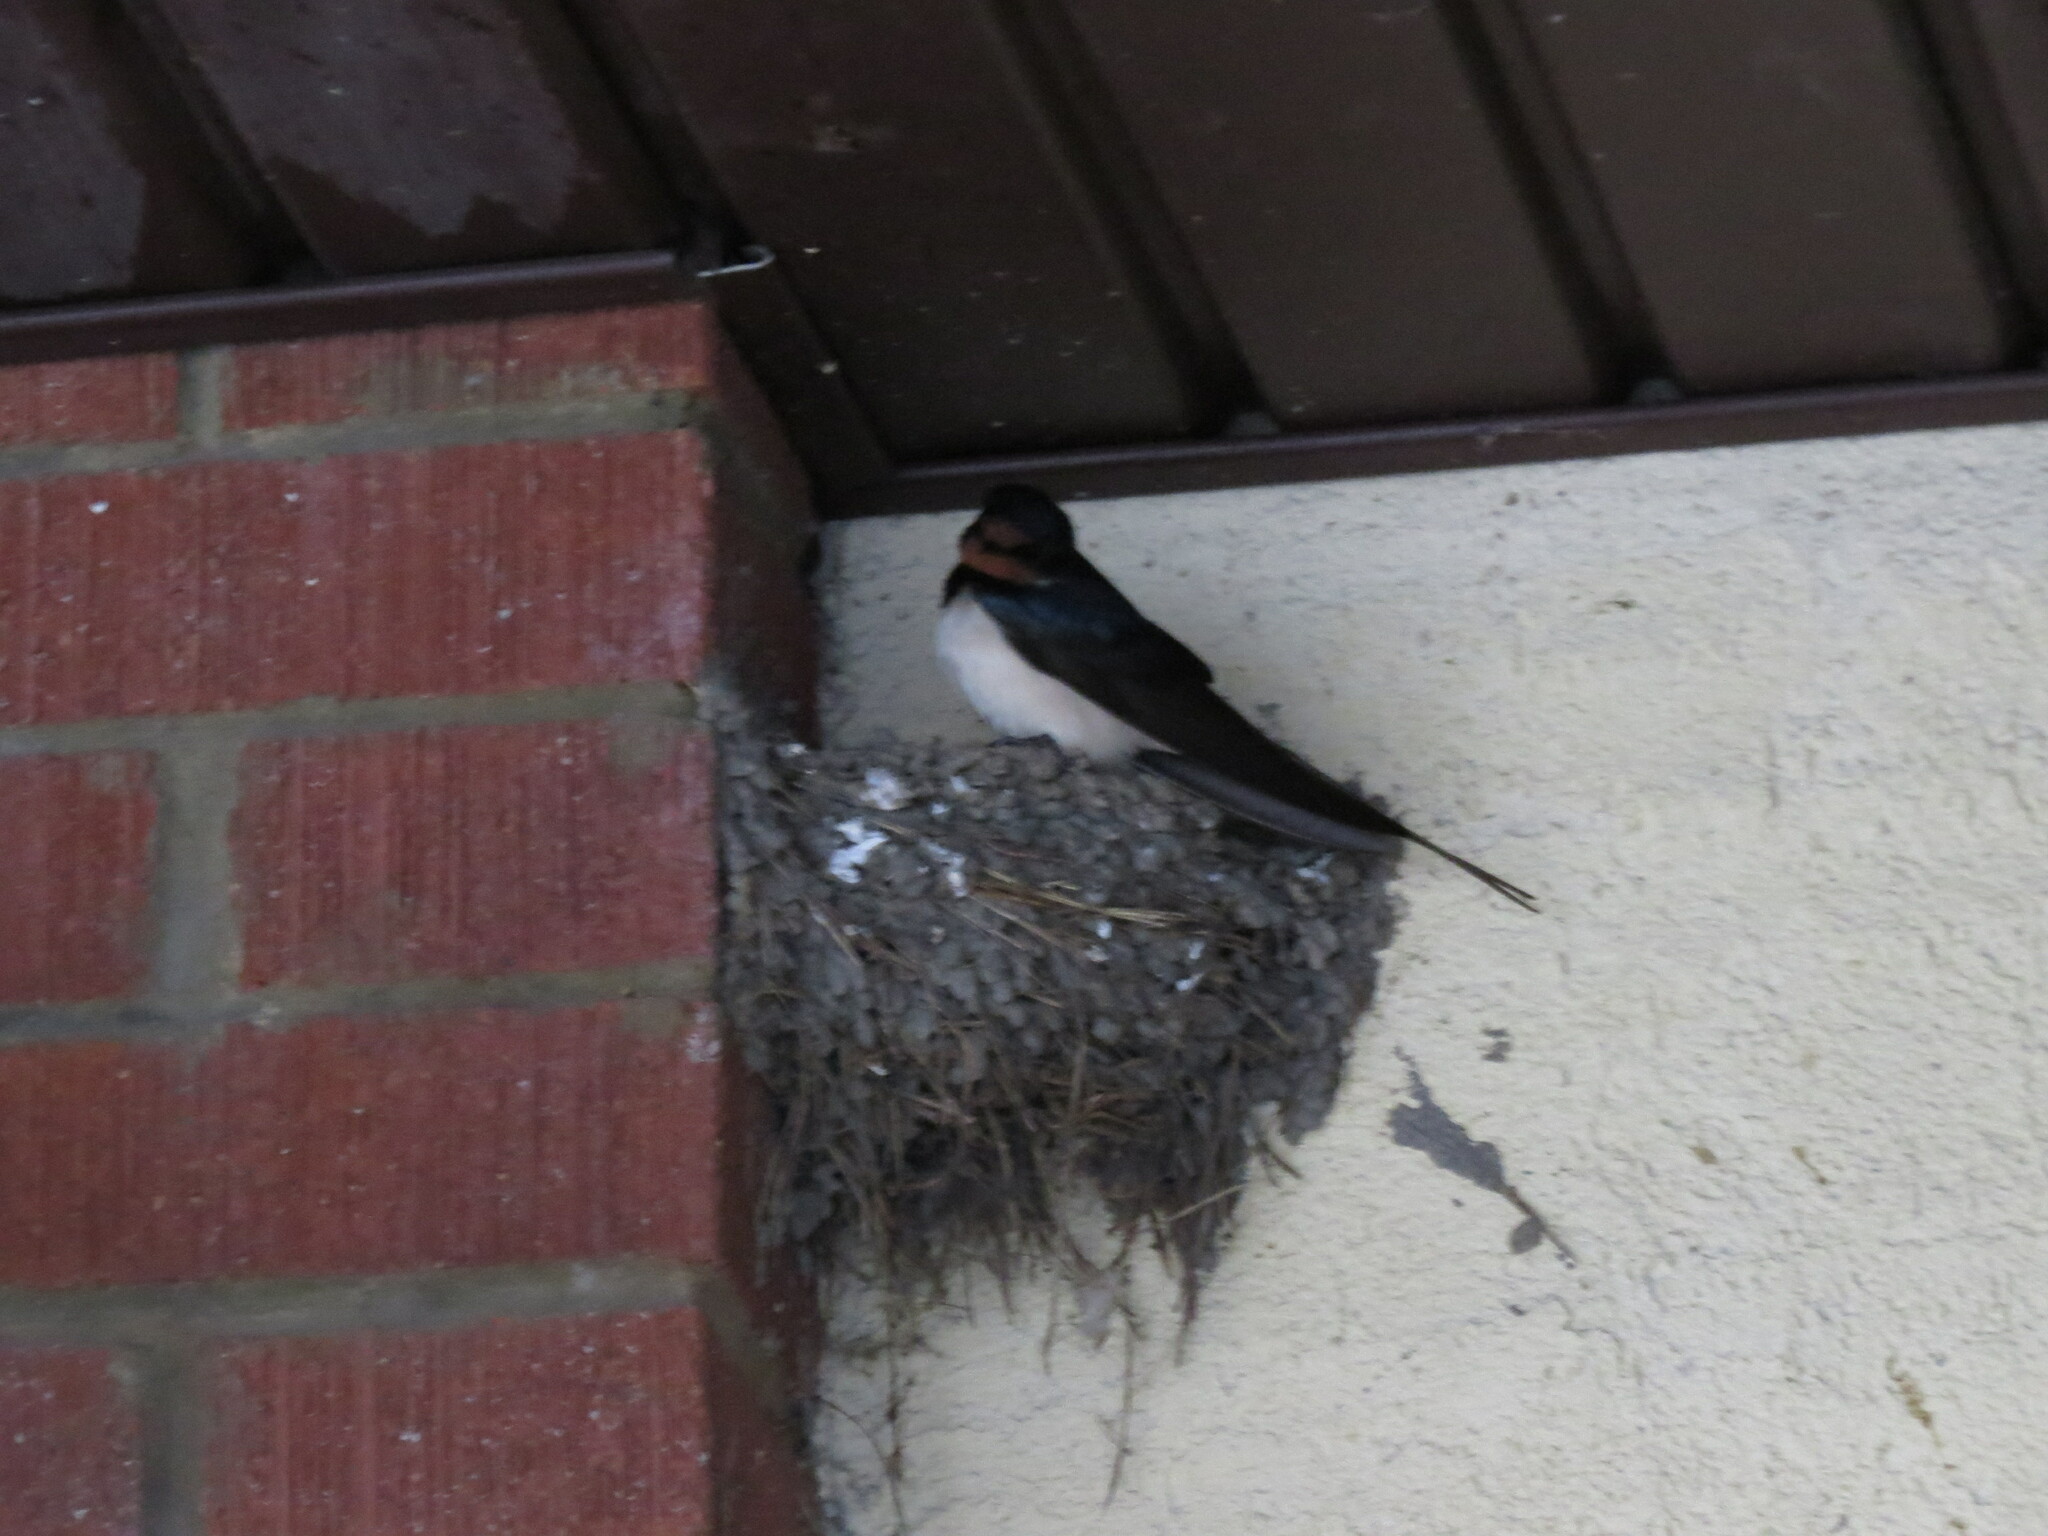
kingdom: Animalia
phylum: Chordata
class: Aves
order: Passeriformes
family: Hirundinidae
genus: Hirundo
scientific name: Hirundo rustica
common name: Barn swallow
